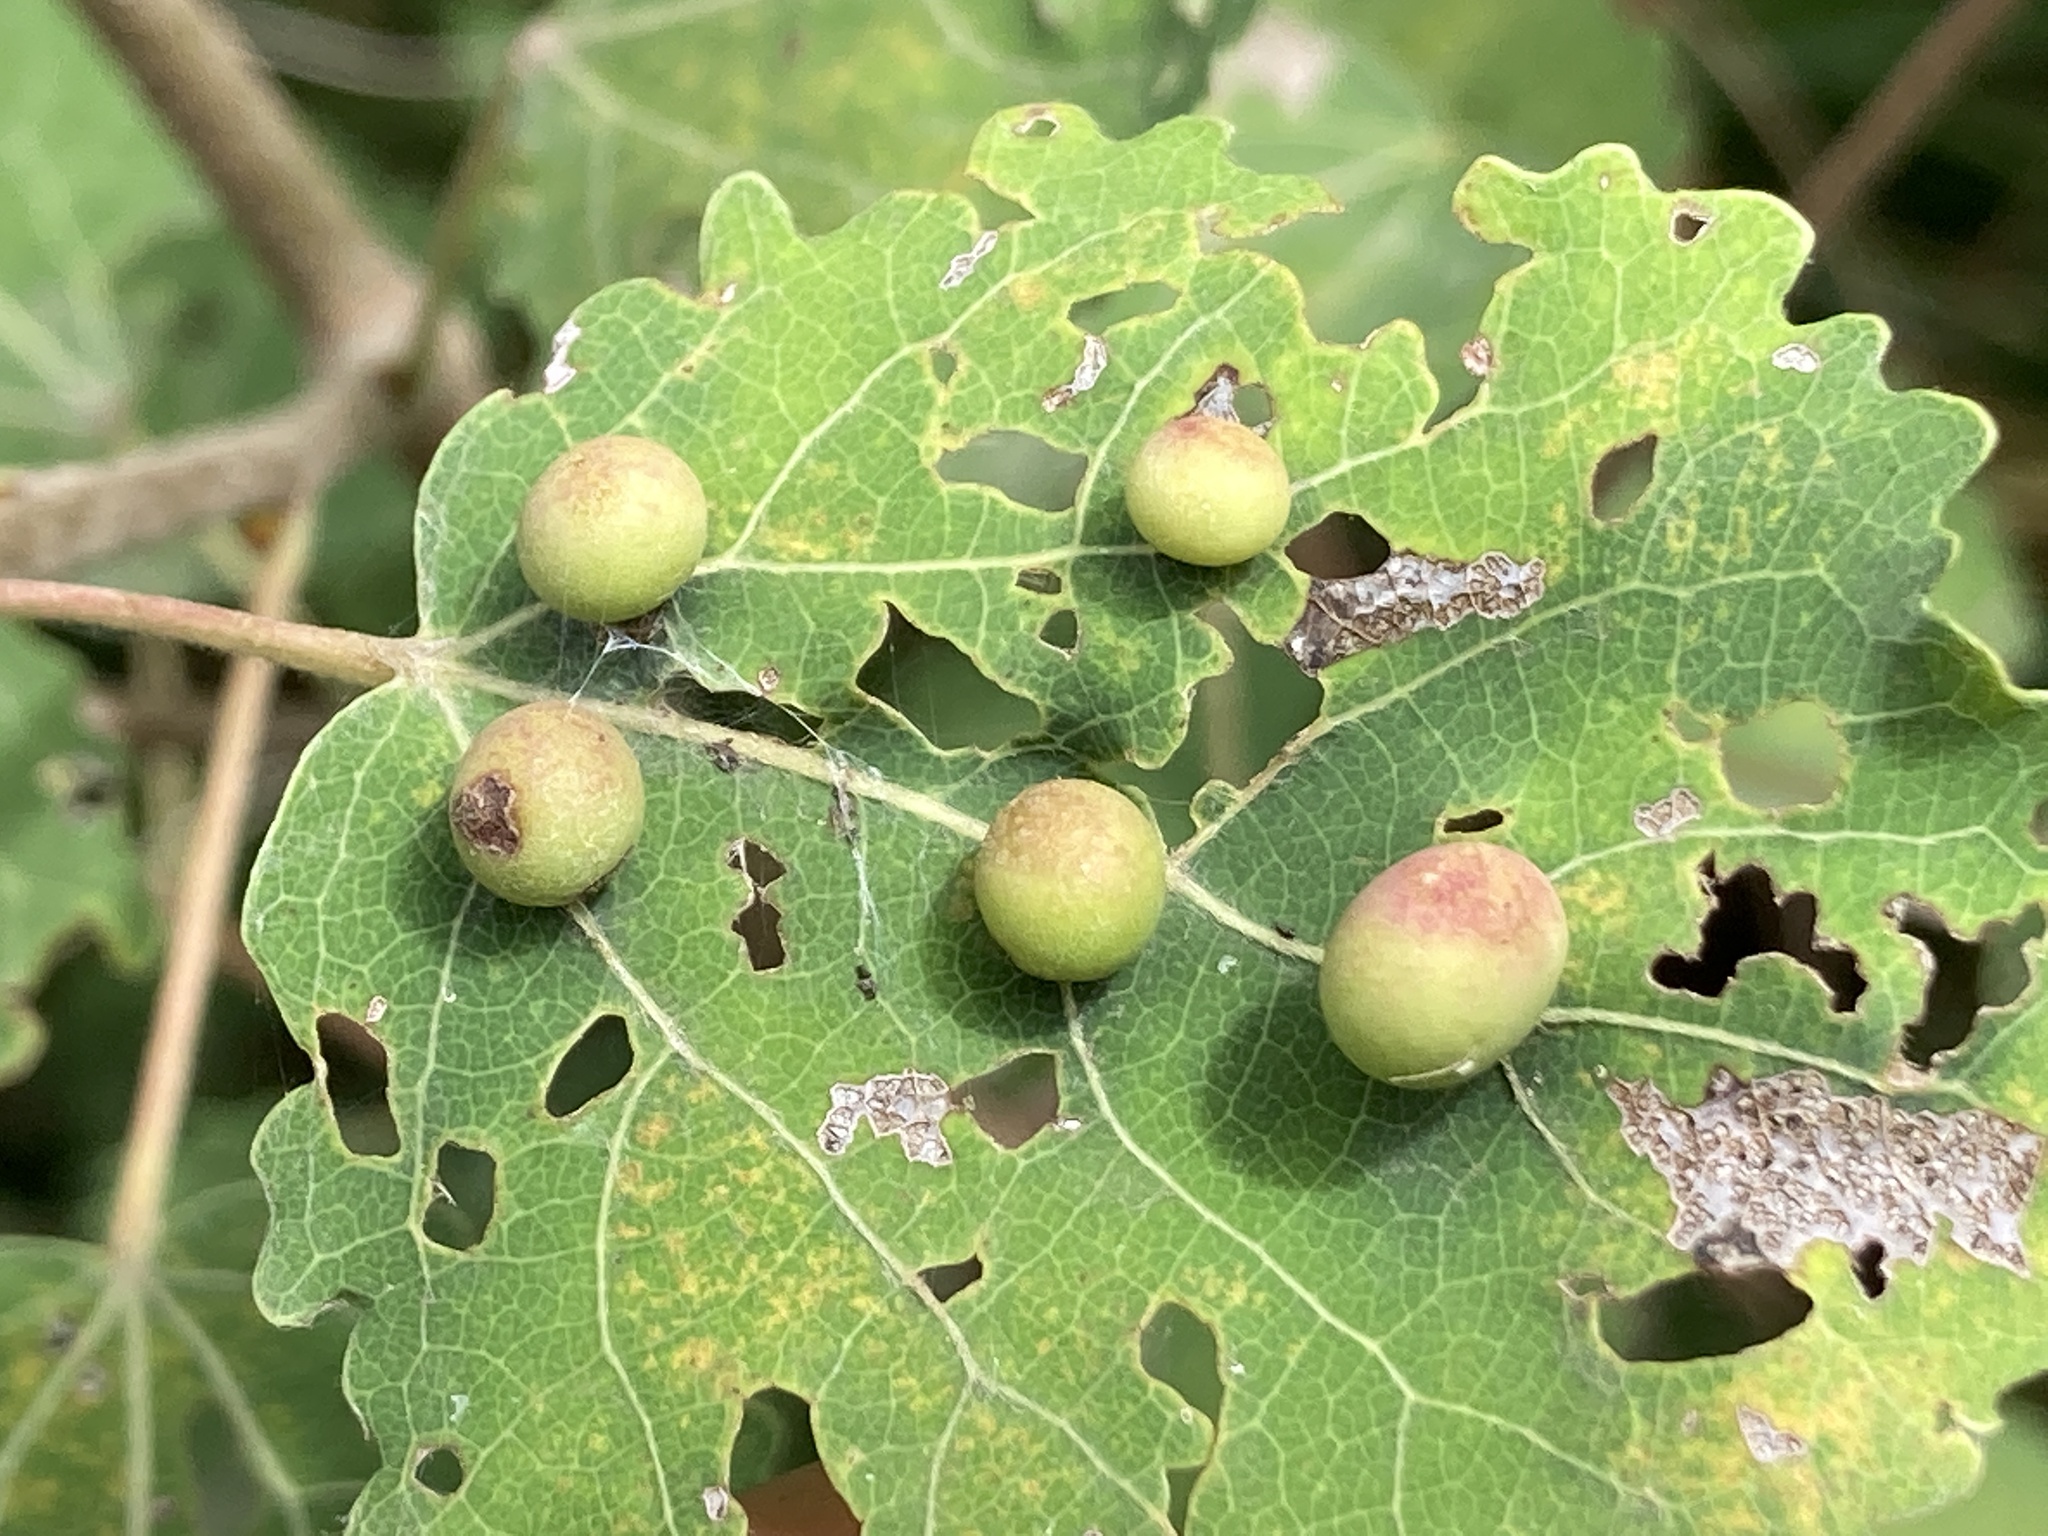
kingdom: Animalia
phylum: Arthropoda
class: Insecta
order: Diptera
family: Cecidomyiidae
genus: Harmandiola
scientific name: Harmandiola tremulae
